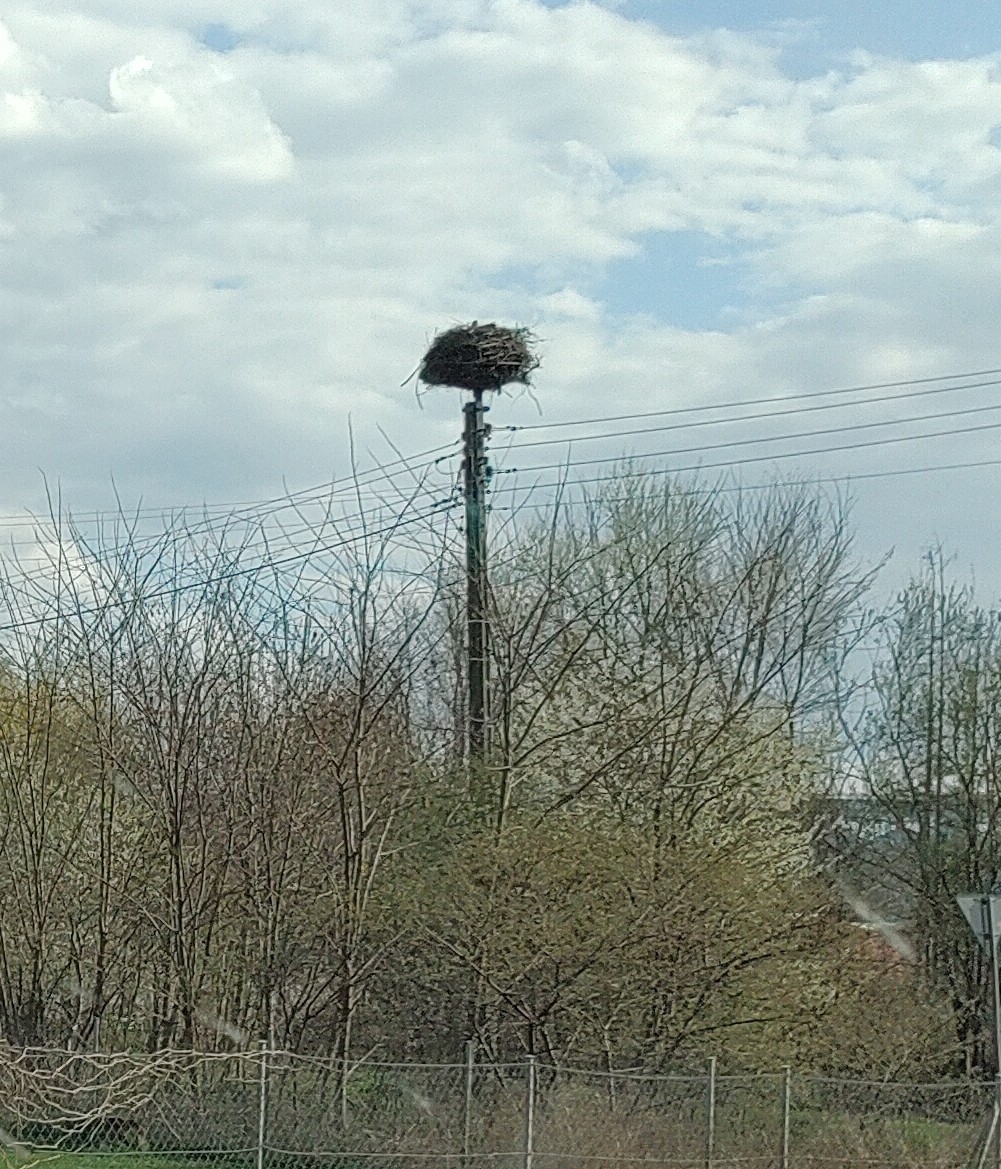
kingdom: Animalia
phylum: Chordata
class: Aves
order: Ciconiiformes
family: Ciconiidae
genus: Ciconia
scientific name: Ciconia ciconia
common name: White stork
